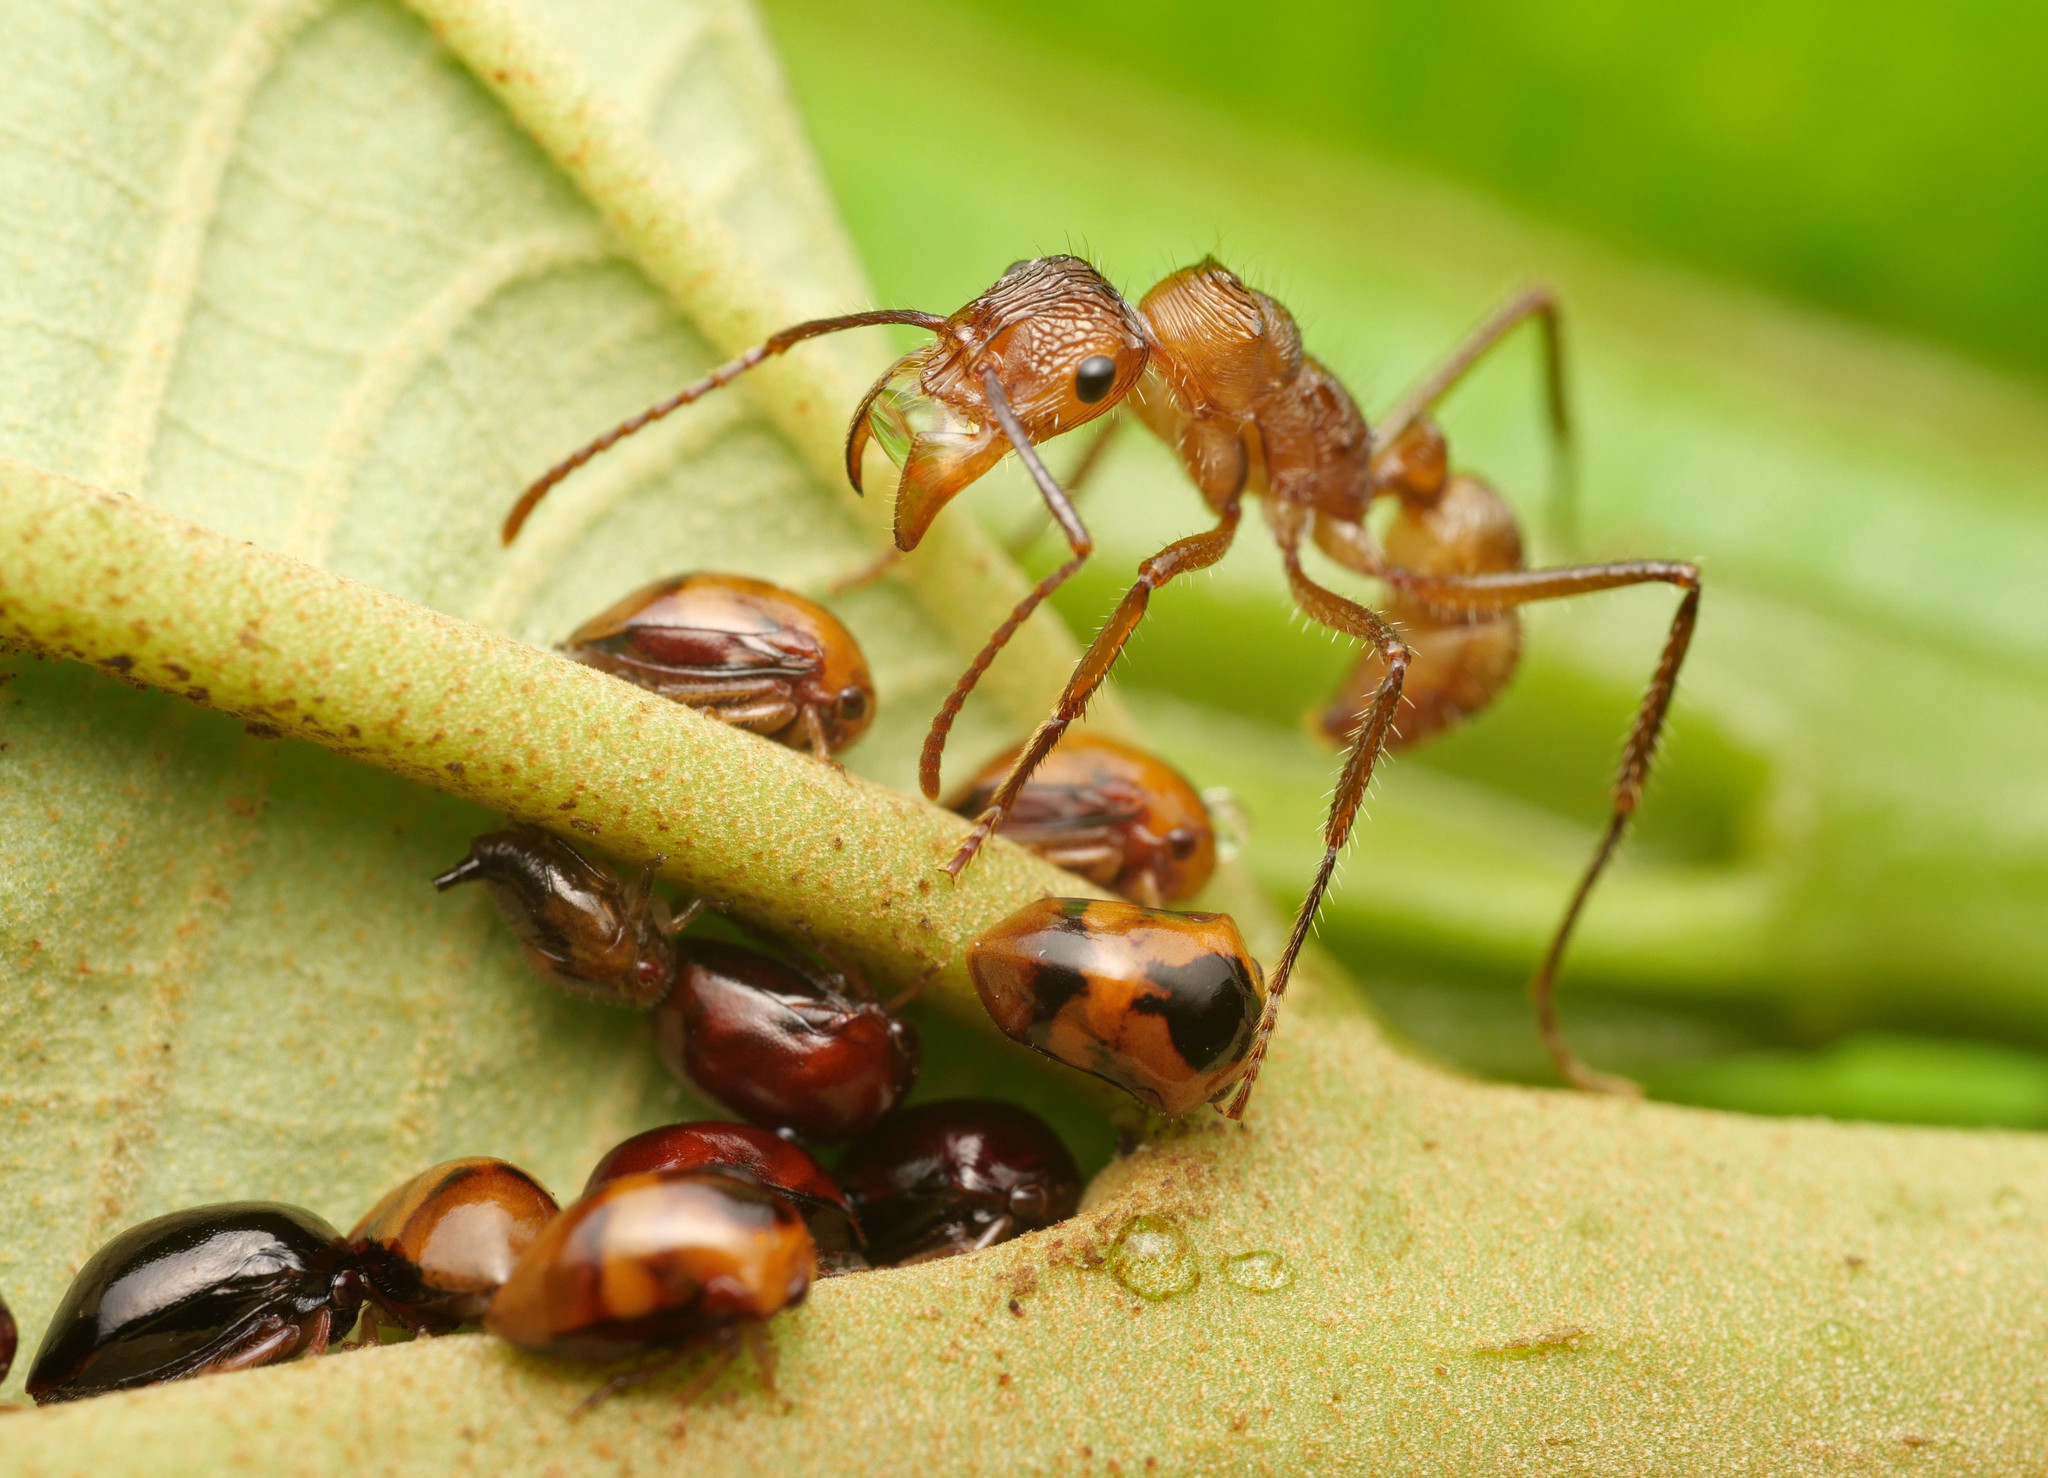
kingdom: Animalia
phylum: Arthropoda
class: Insecta
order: Hymenoptera
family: Formicidae
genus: Ectatomma
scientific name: Ectatomma tuberculatum
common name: Ant
